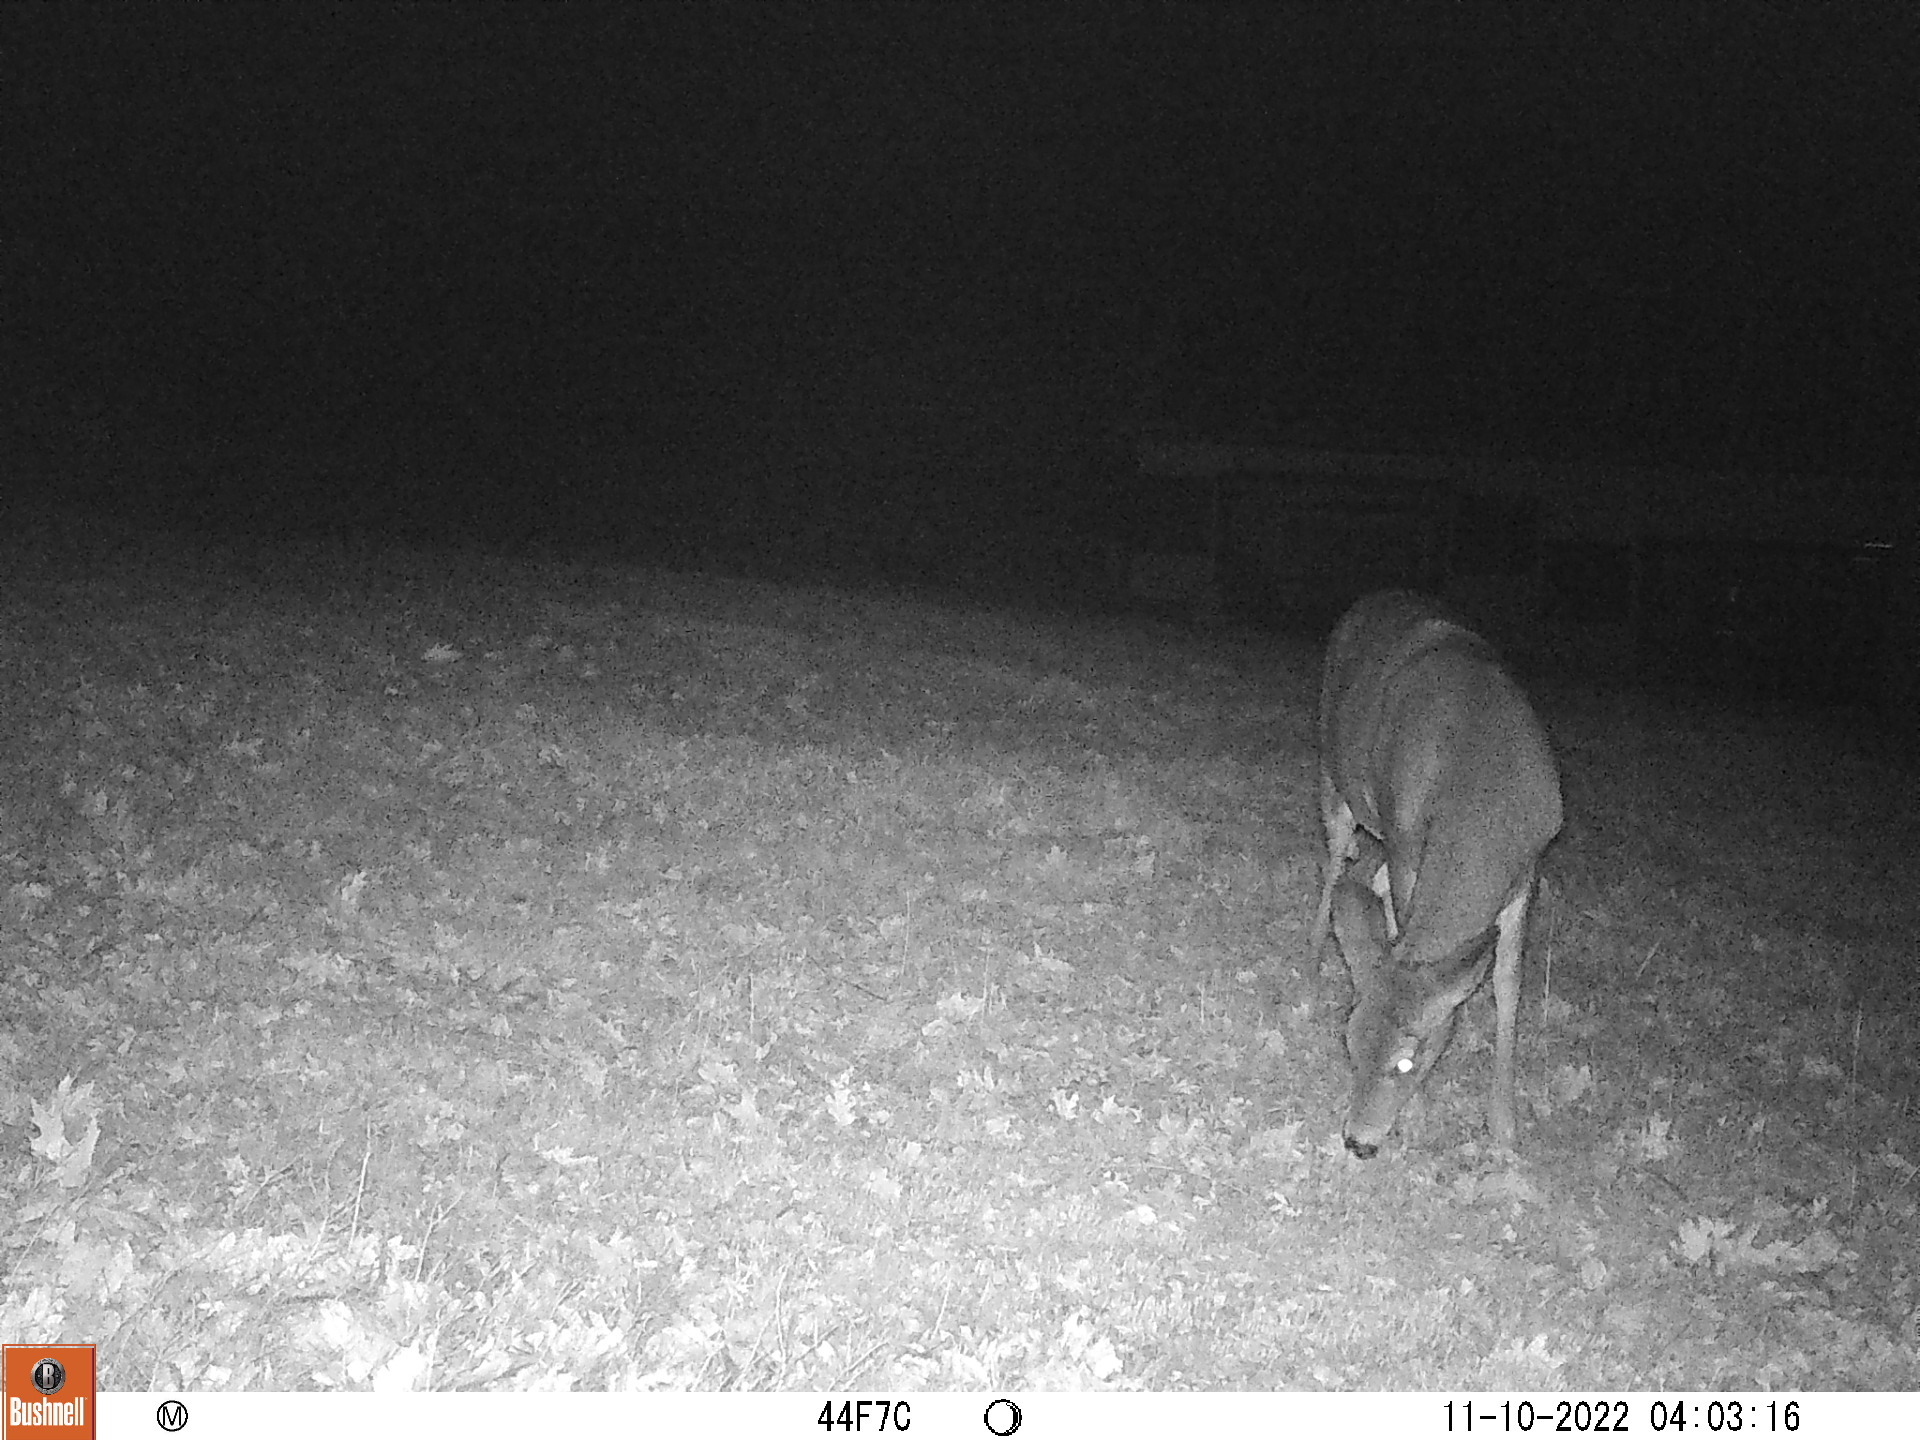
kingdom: Animalia
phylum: Chordata
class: Mammalia
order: Artiodactyla
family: Cervidae
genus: Odocoileus
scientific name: Odocoileus virginianus
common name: White-tailed deer
